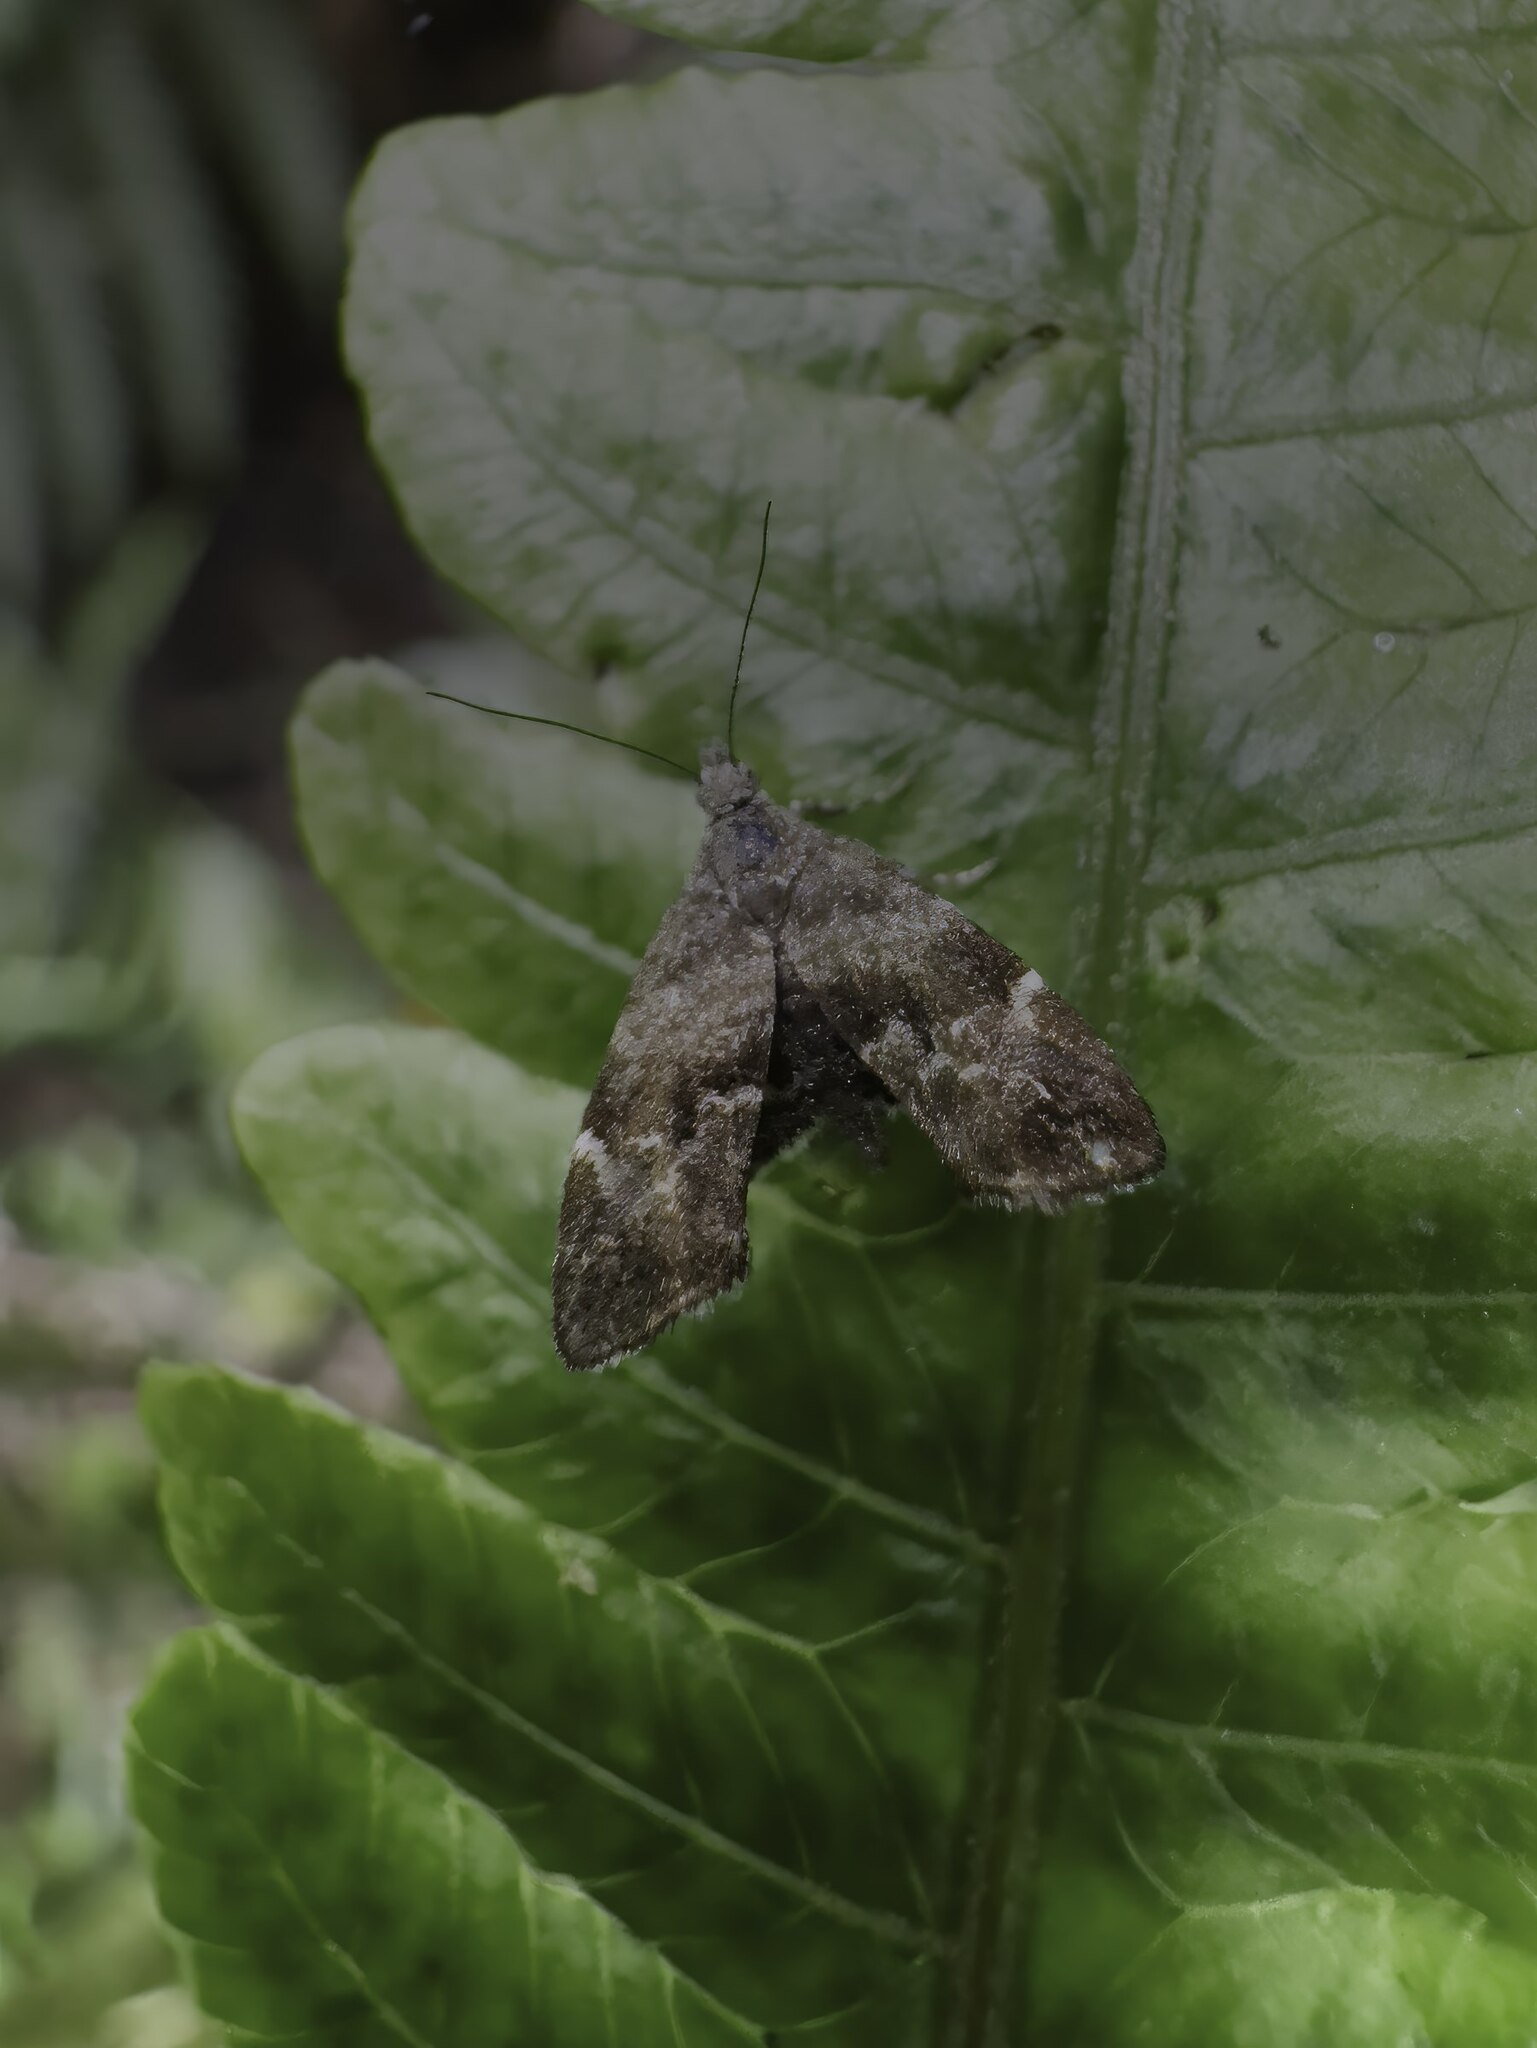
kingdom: Animalia
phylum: Arthropoda
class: Insecta
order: Lepidoptera
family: Choreutidae
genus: Asterivora
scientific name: Asterivora colpota
